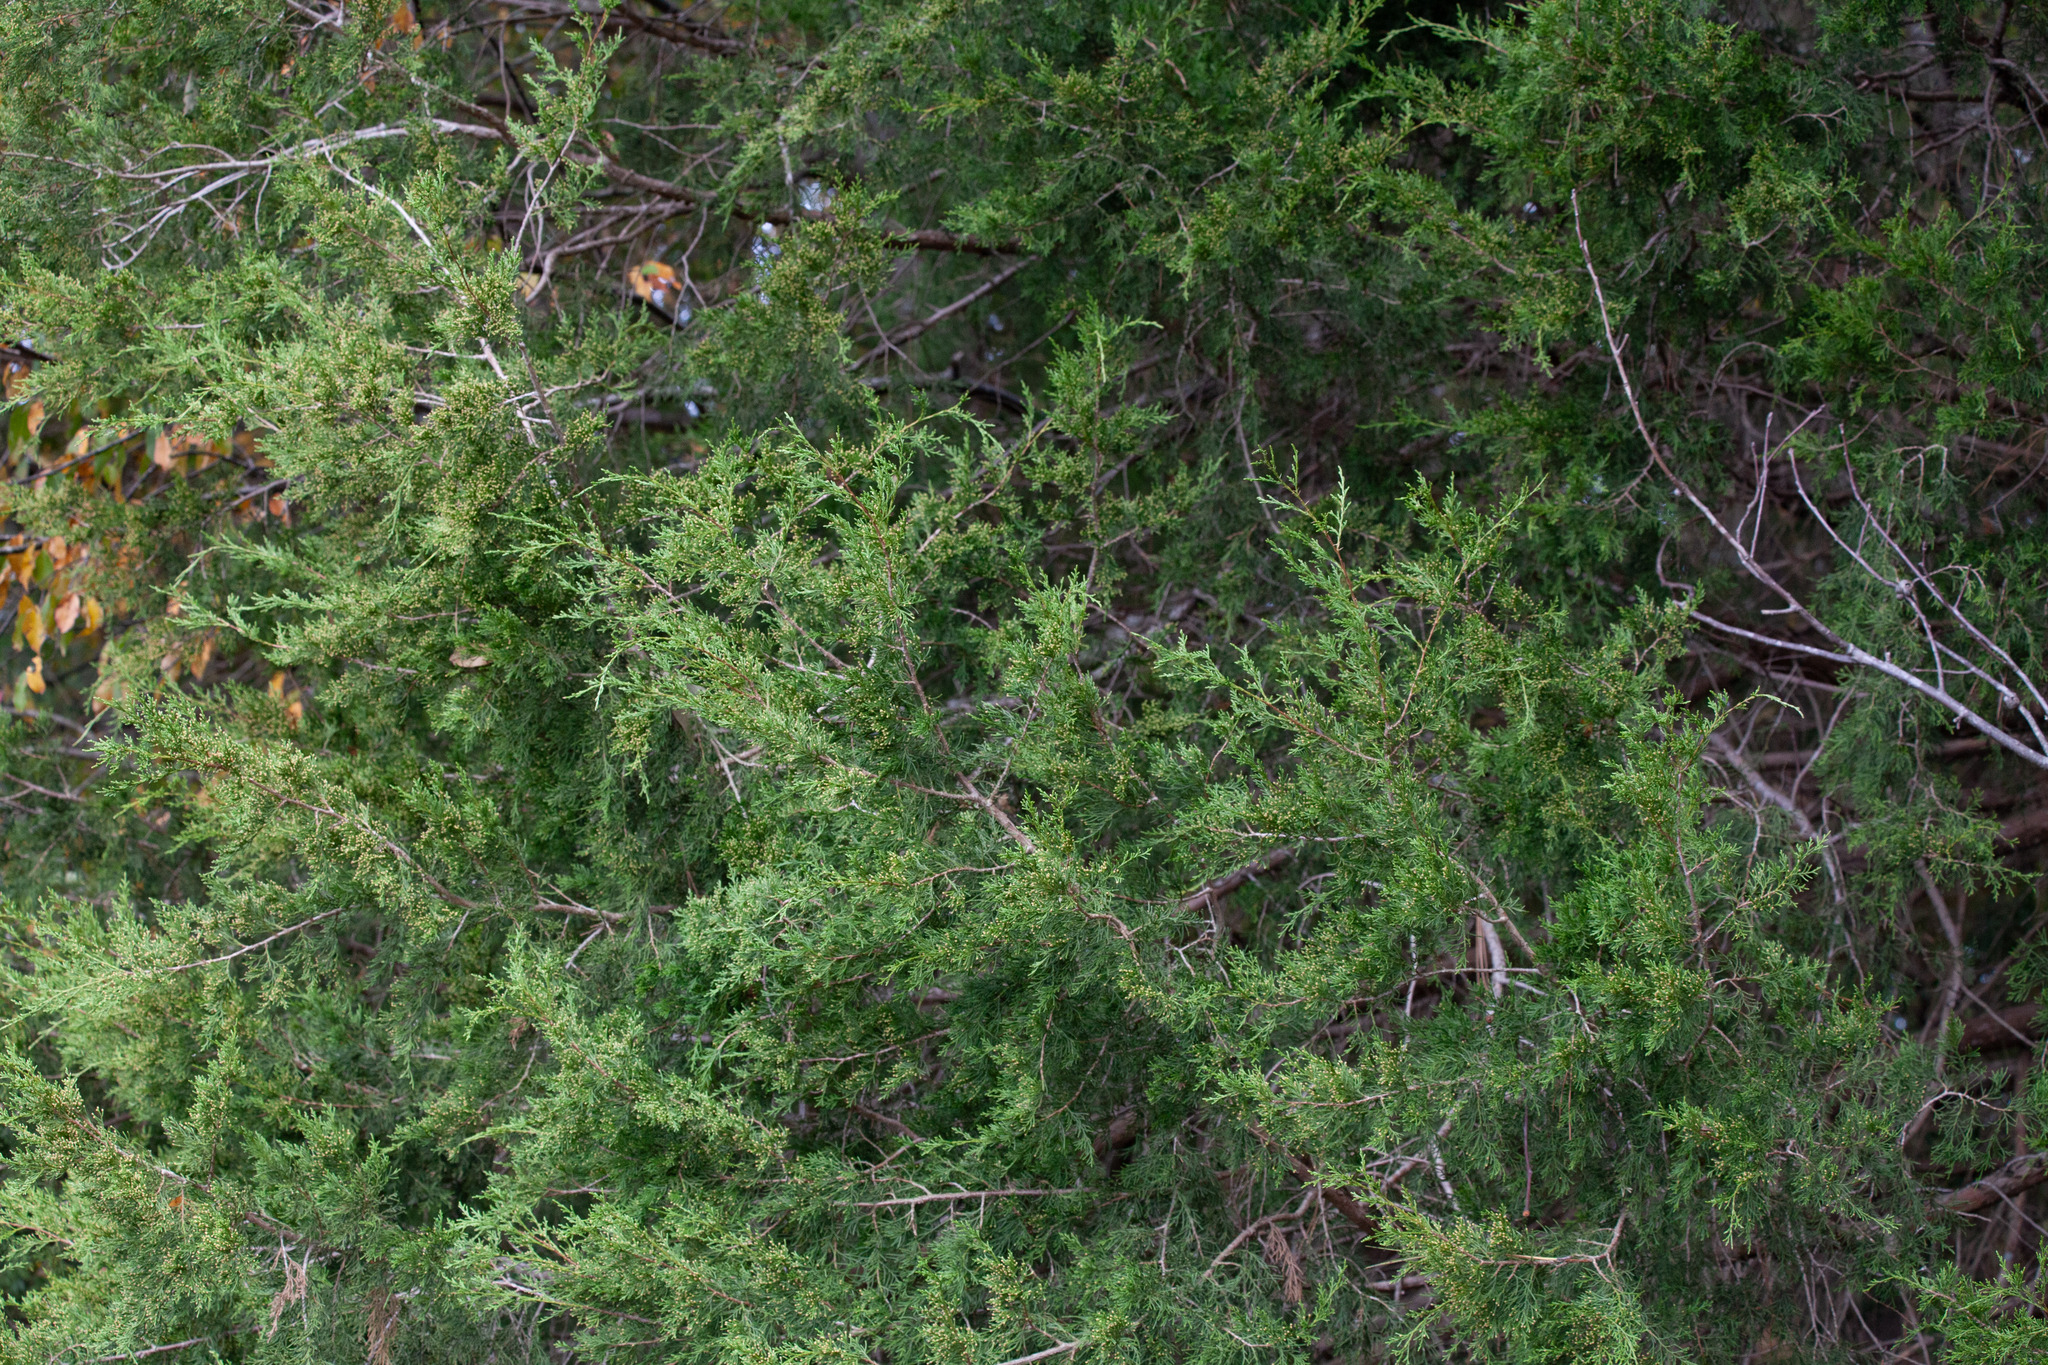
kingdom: Plantae
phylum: Tracheophyta
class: Pinopsida
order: Pinales
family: Cupressaceae
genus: Juniperus
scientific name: Juniperus virginiana
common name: Red juniper
